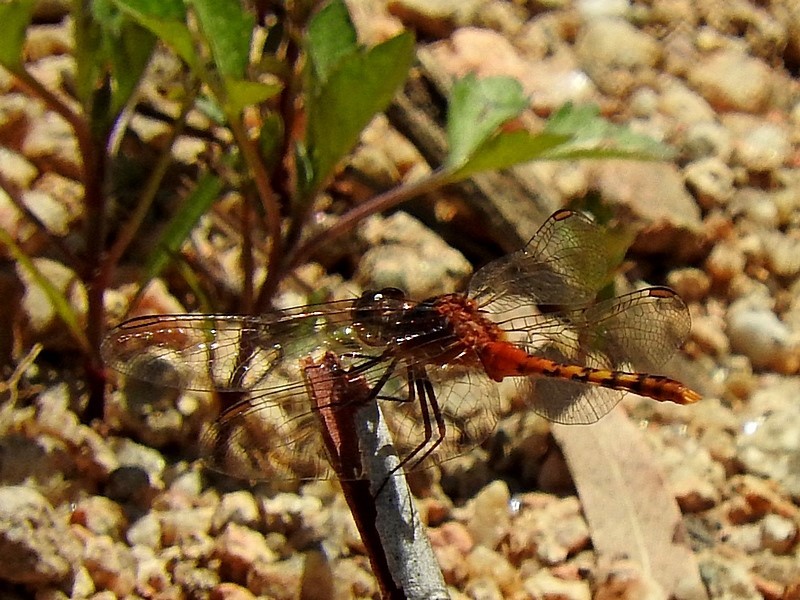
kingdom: Animalia
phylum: Arthropoda
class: Insecta
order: Odonata
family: Libellulidae
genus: Diplacodes
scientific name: Diplacodes melanopsis
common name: Black-faced percher
